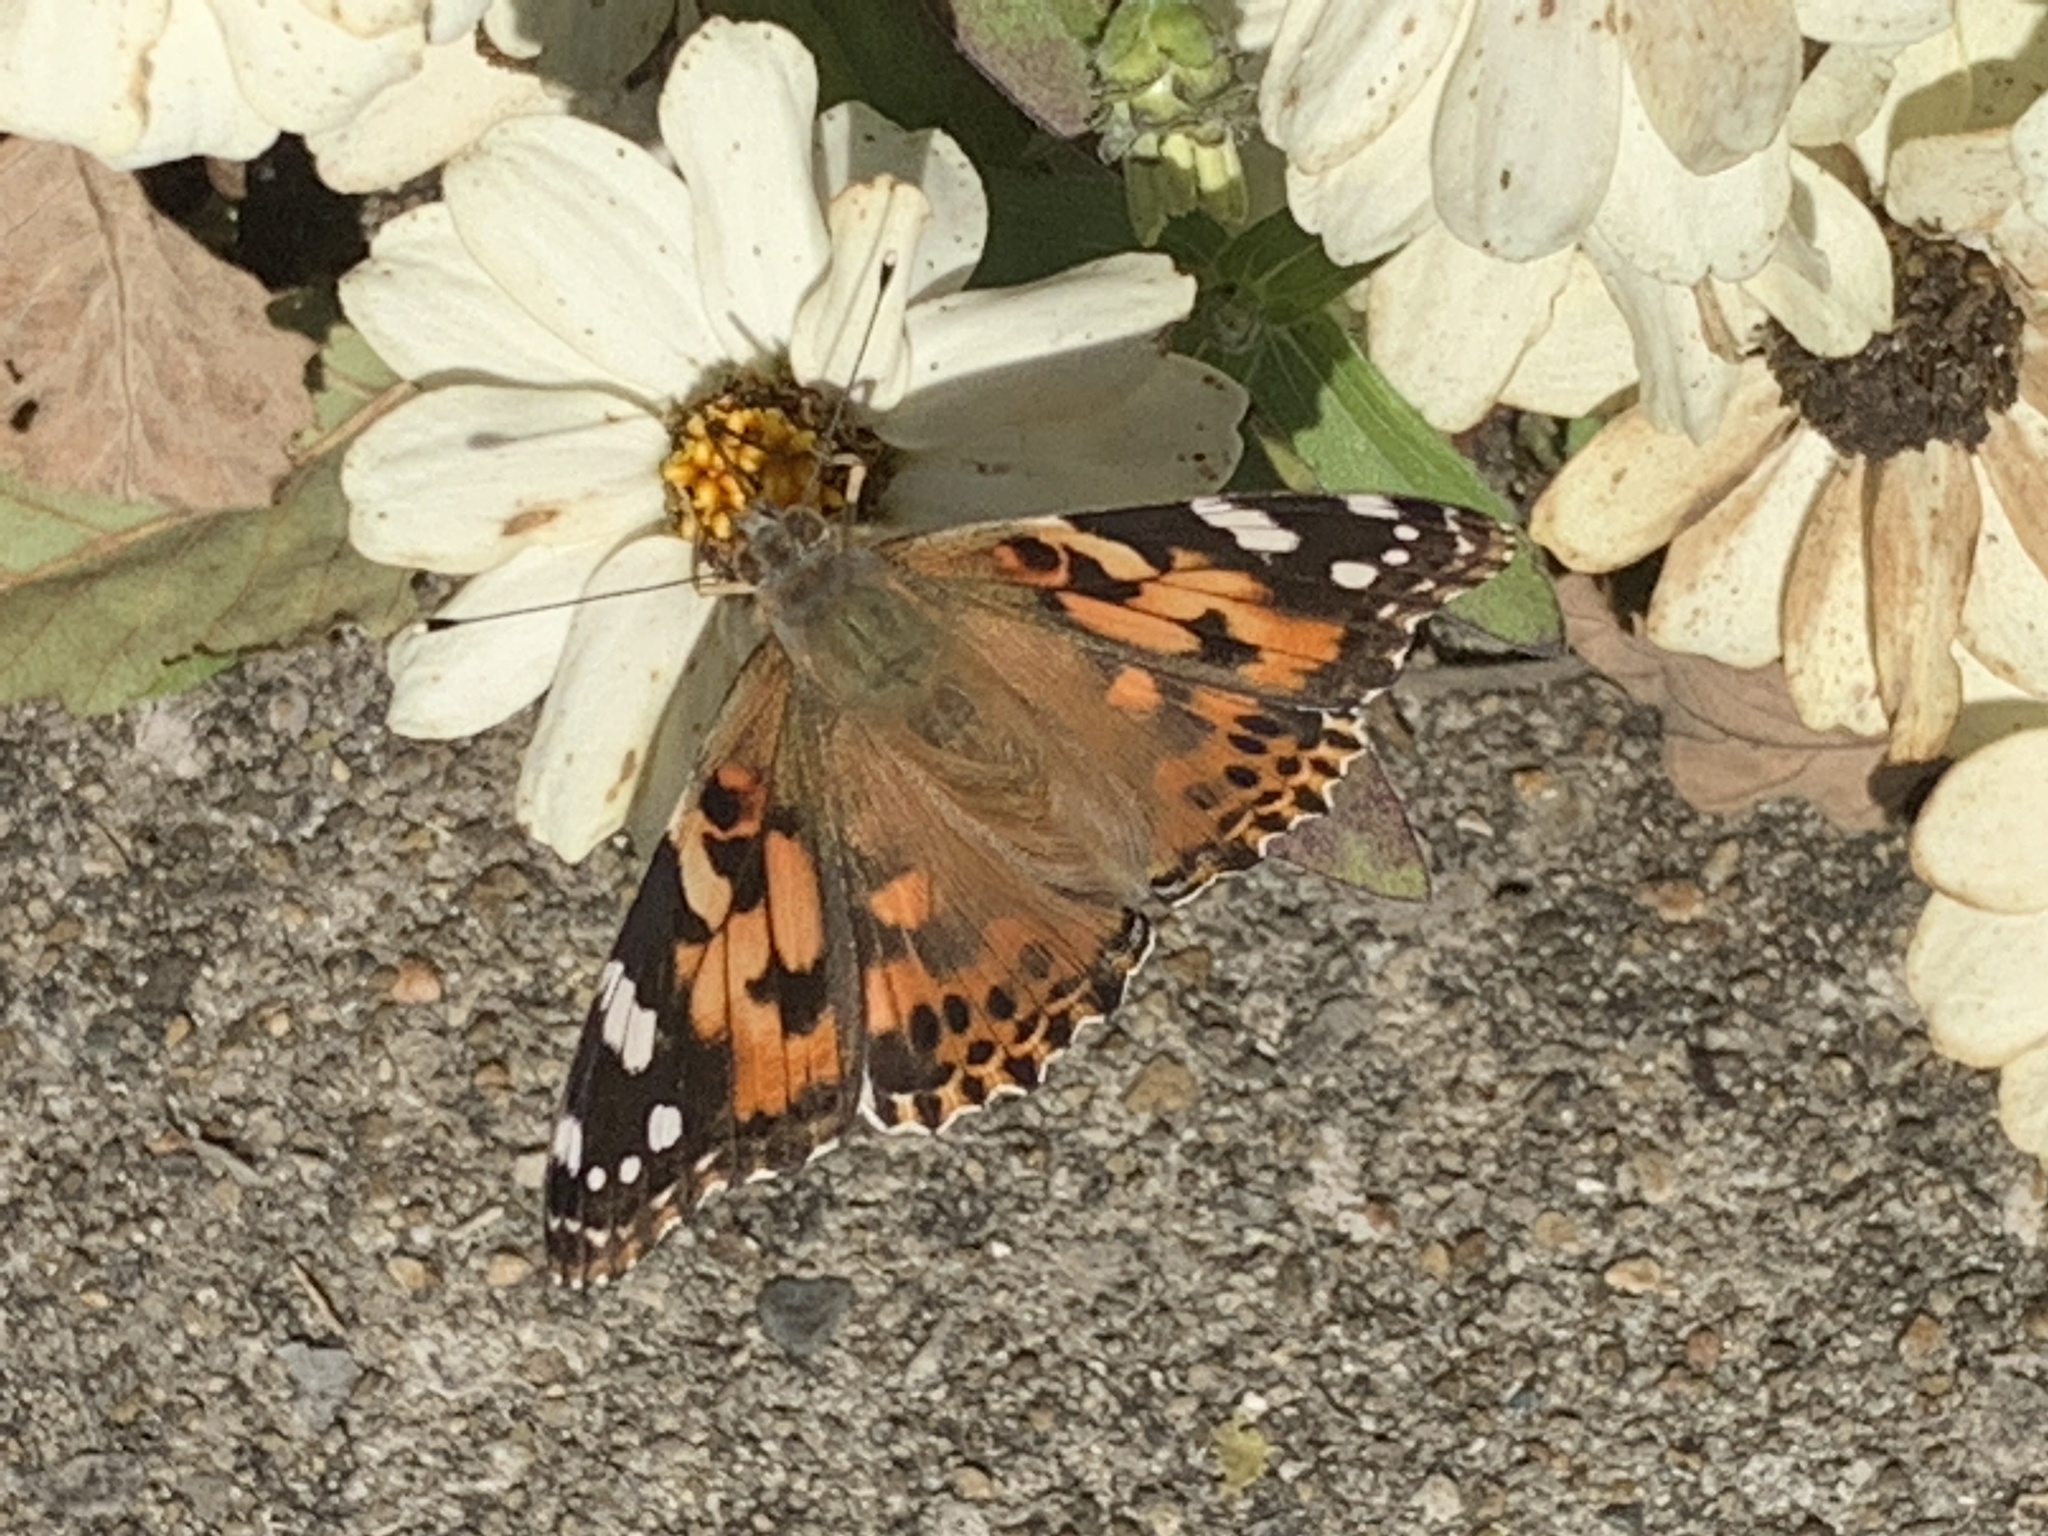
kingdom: Animalia
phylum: Arthropoda
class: Insecta
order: Lepidoptera
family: Nymphalidae
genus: Vanessa
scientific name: Vanessa cardui
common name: Painted lady
